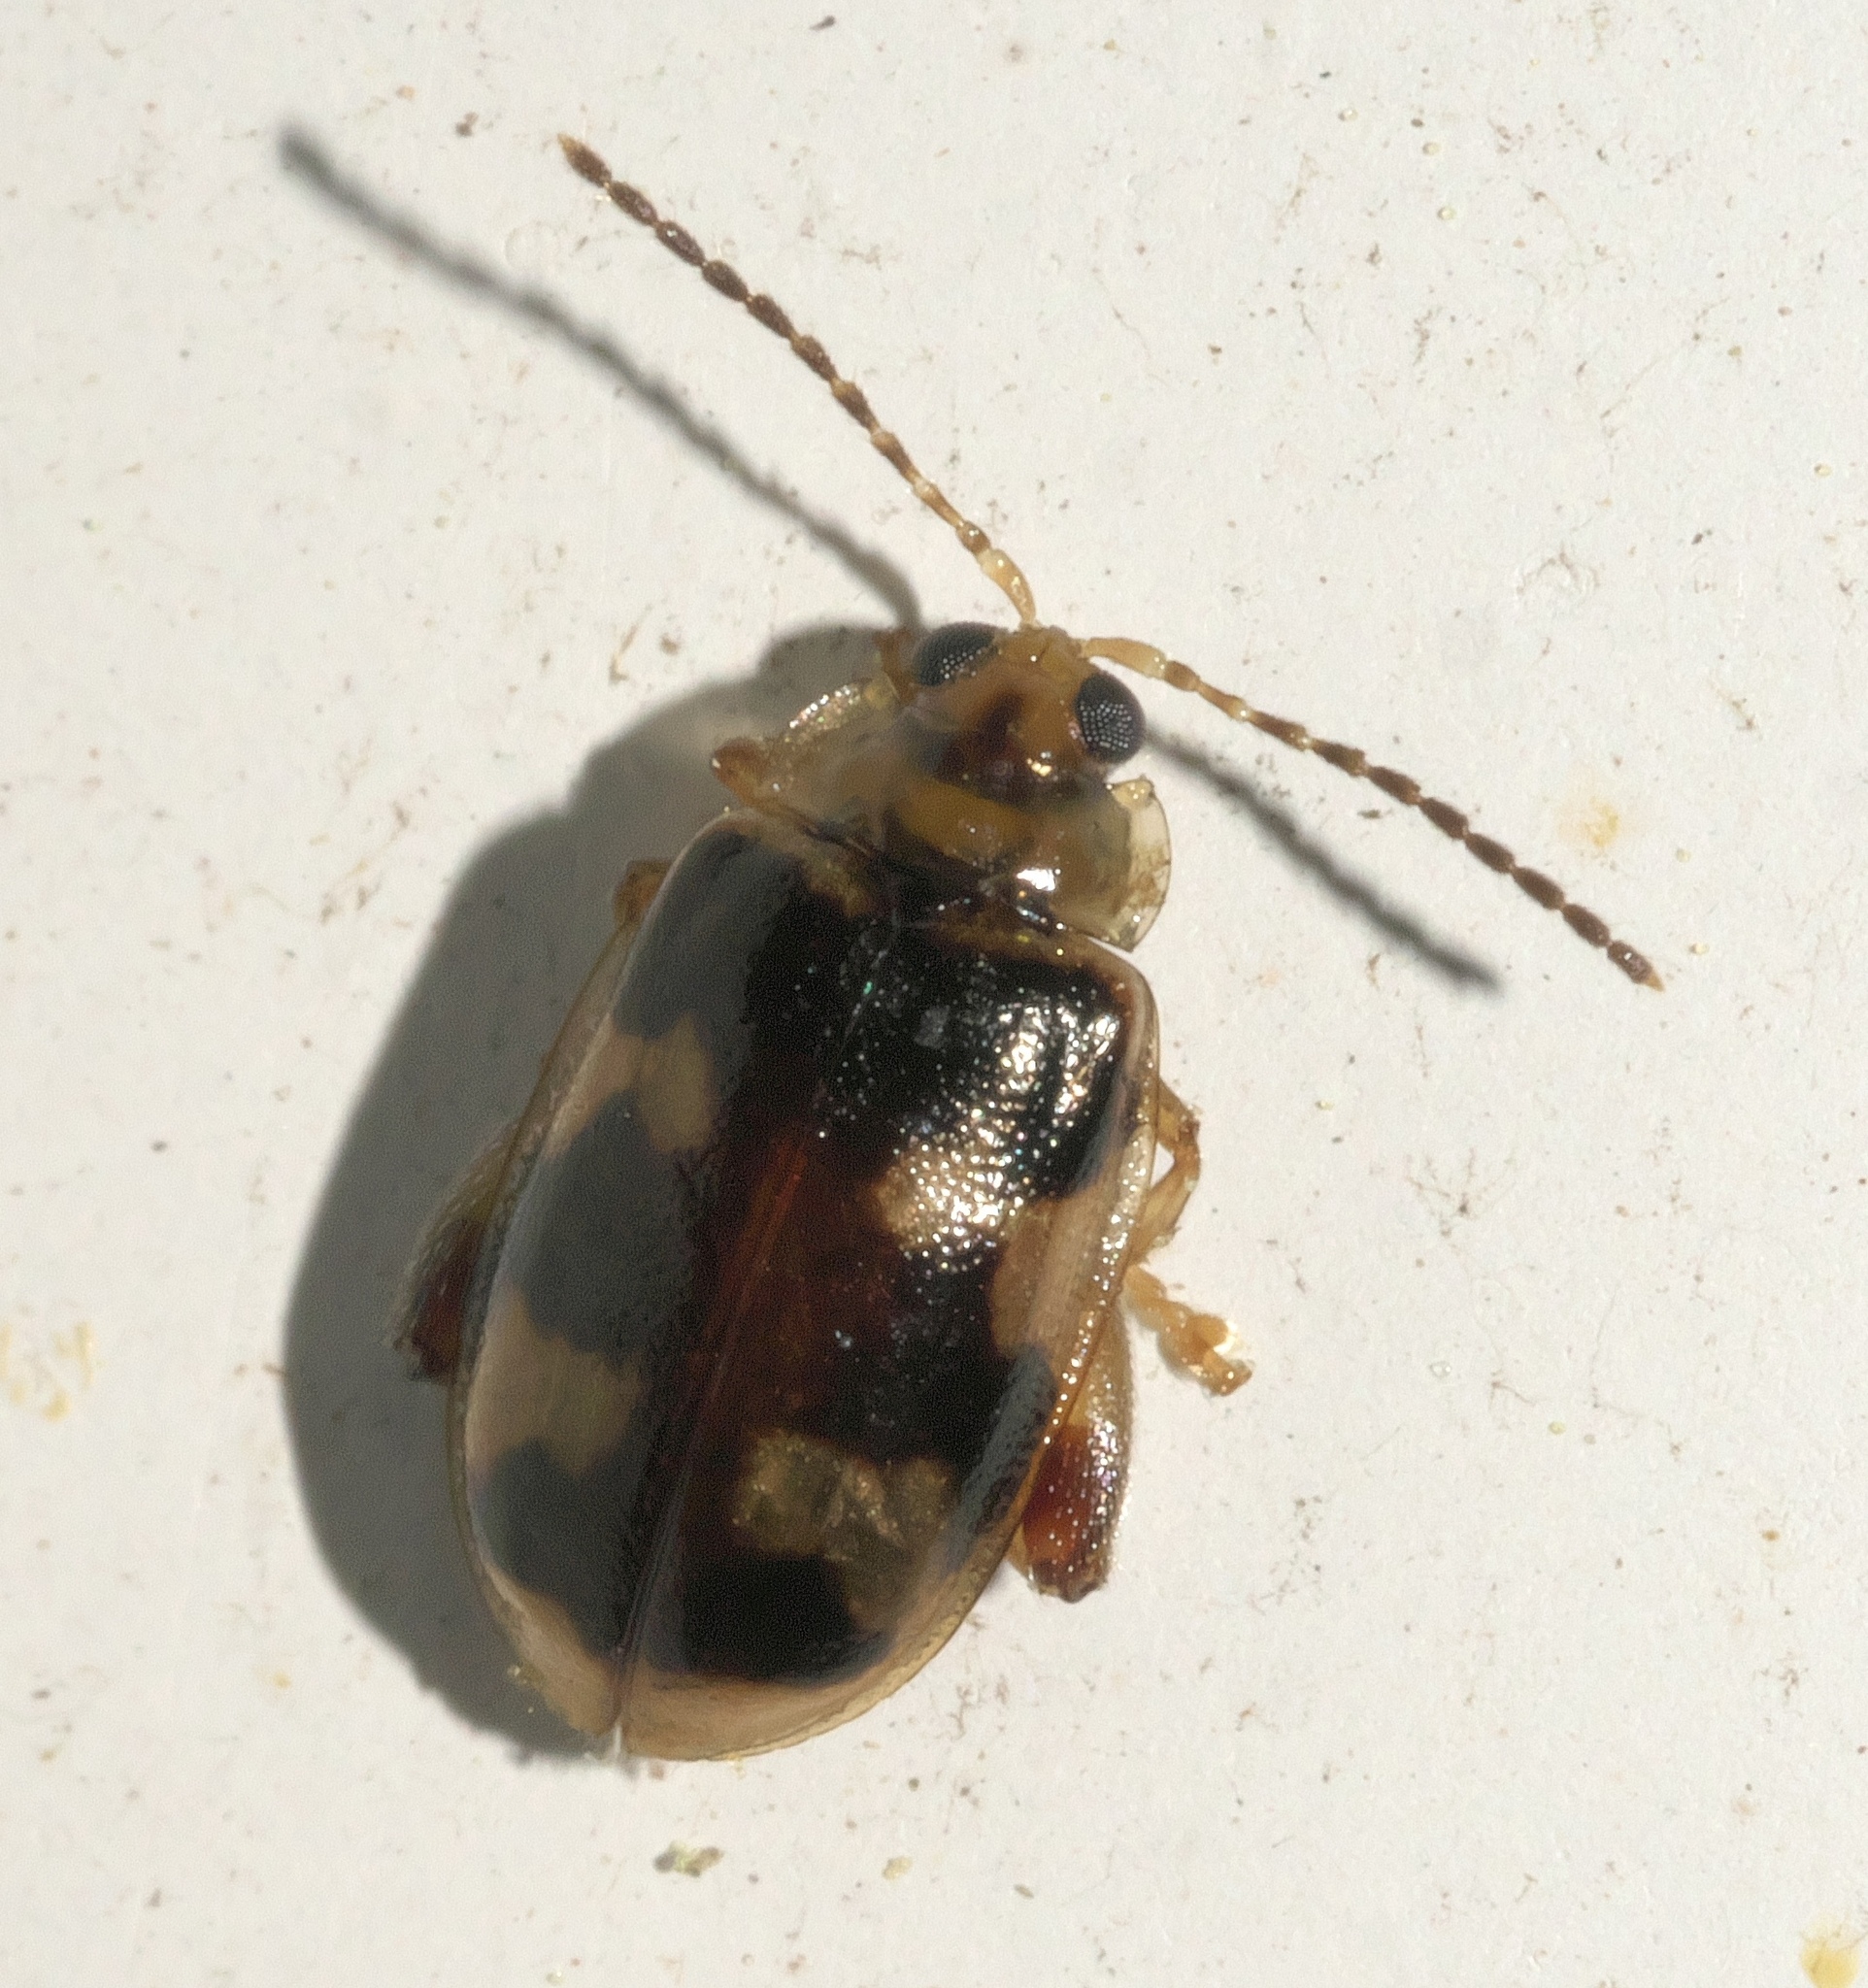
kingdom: Animalia
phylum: Arthropoda
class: Insecta
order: Coleoptera
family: Chrysomelidae
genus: Capraita
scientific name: Capraita scalaris
